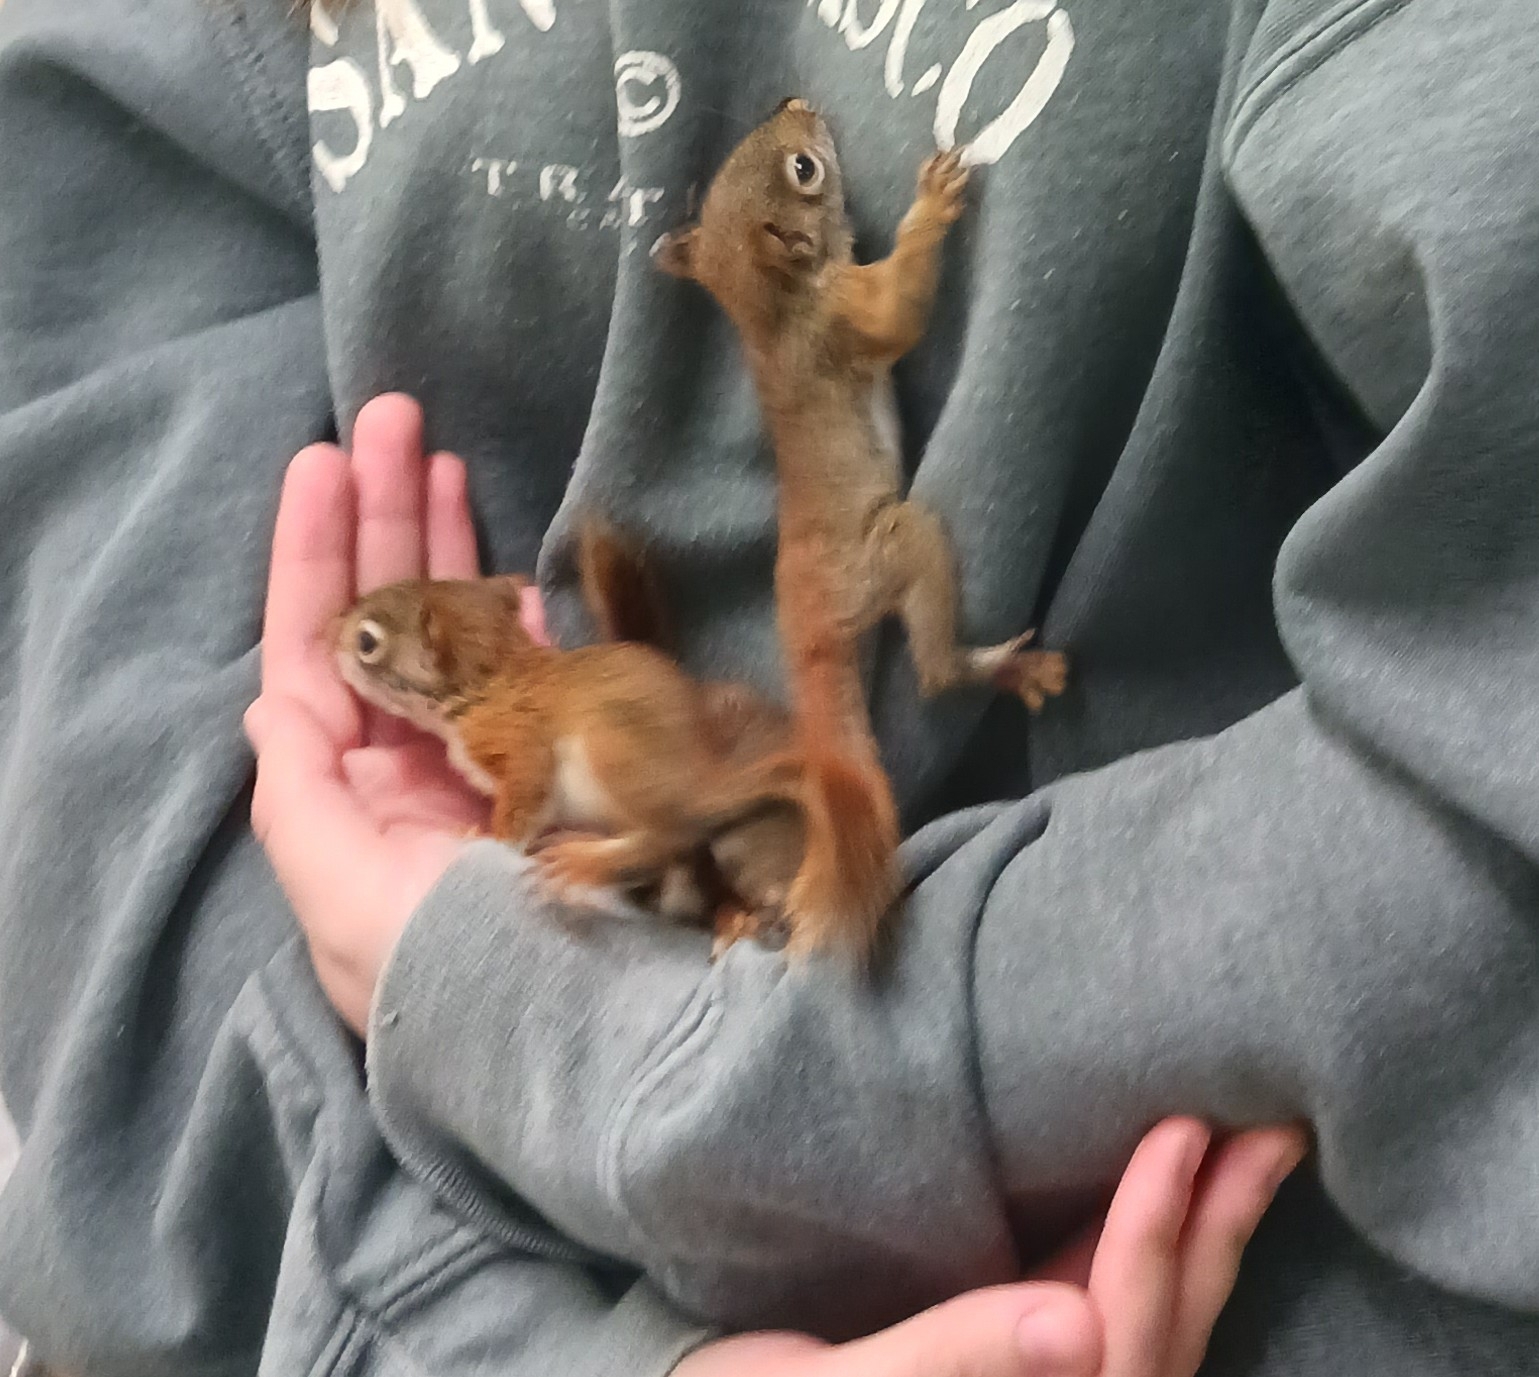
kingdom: Animalia
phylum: Chordata
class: Mammalia
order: Rodentia
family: Sciuridae
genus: Tamiasciurus
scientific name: Tamiasciurus hudsonicus
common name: Red squirrel
